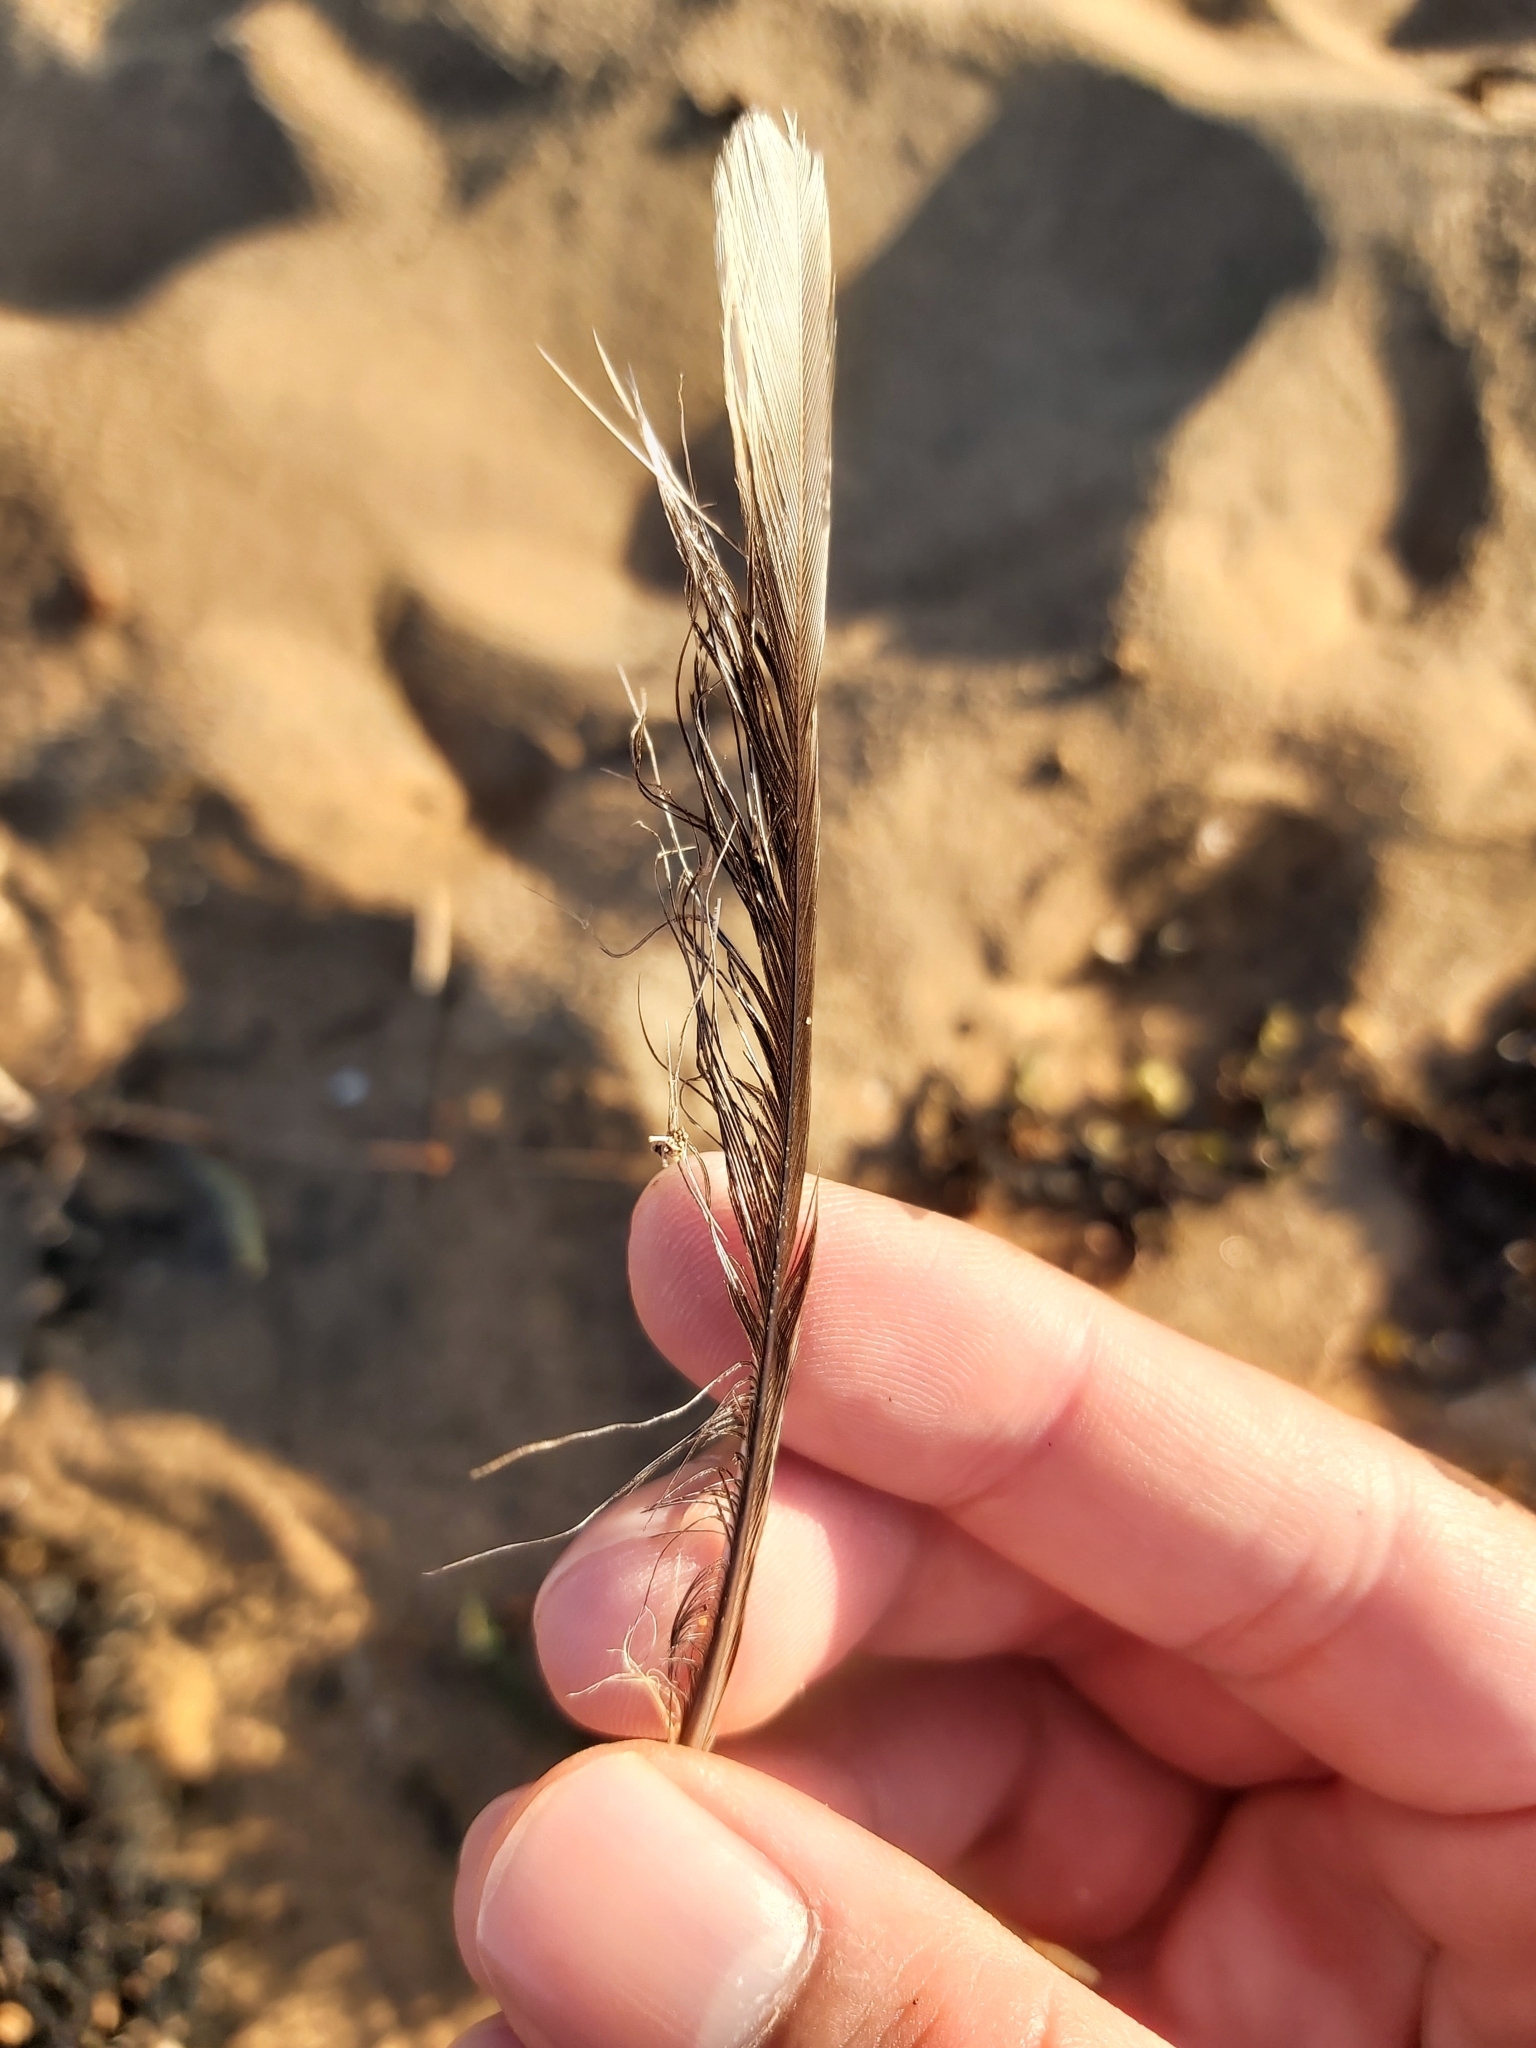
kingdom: Animalia
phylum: Chordata
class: Aves
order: Passeriformes
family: Meliphagidae
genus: Manorina
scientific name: Manorina melanocephala
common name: Noisy miner
